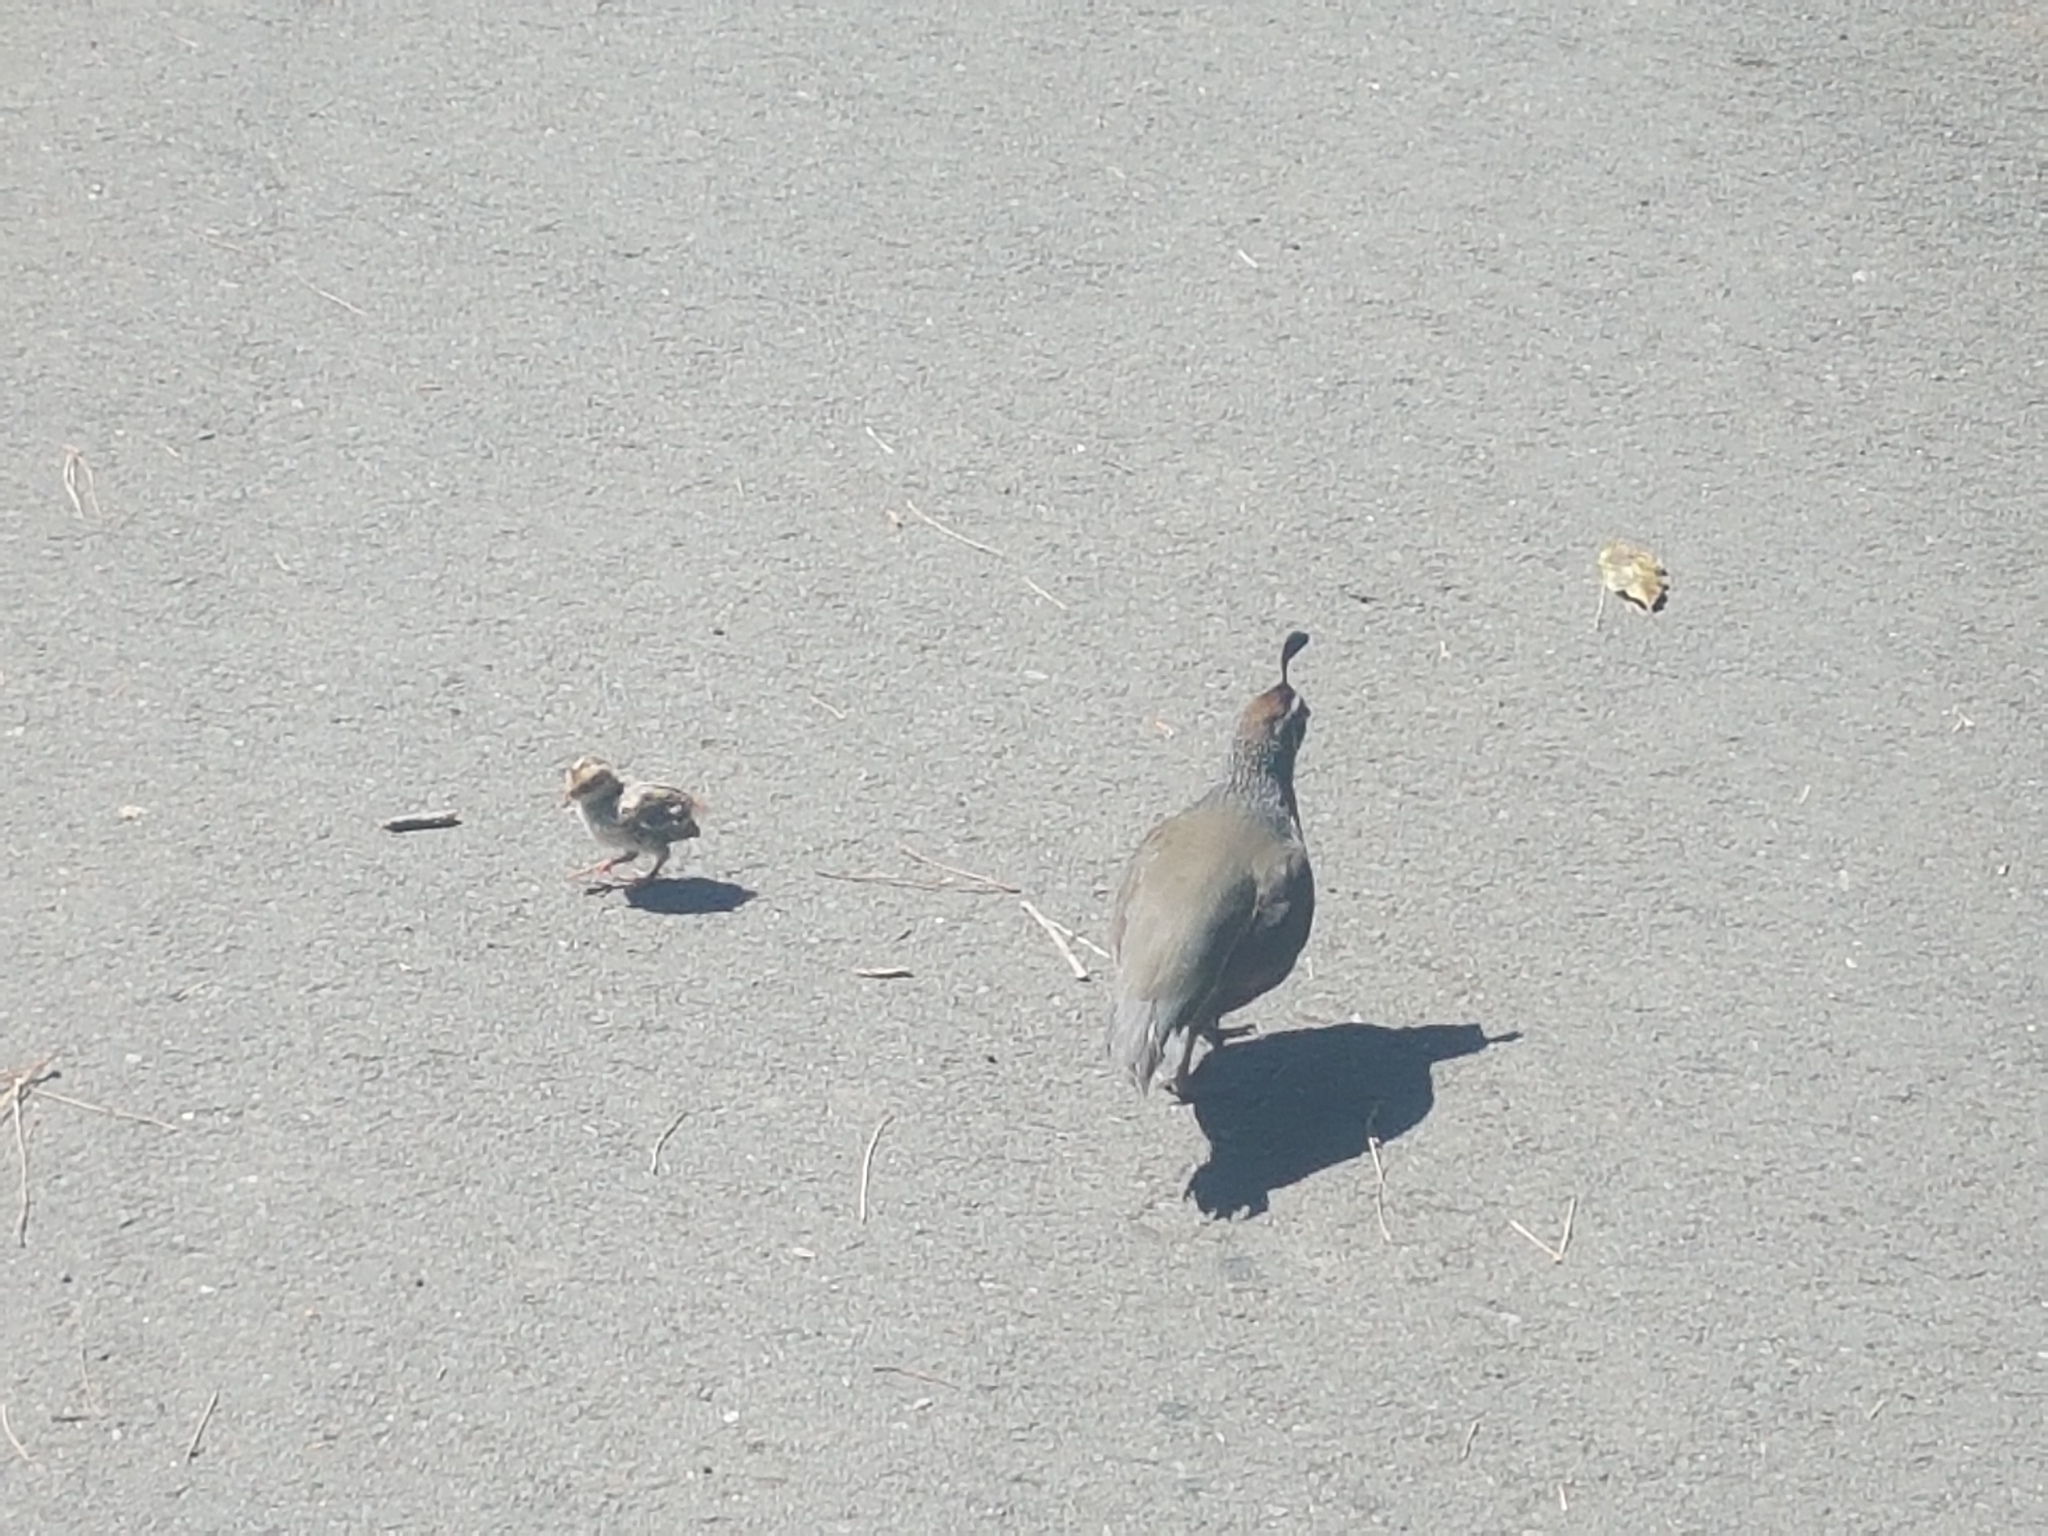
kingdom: Animalia
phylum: Chordata
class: Aves
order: Galliformes
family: Odontophoridae
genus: Callipepla
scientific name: Callipepla californica
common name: California quail
